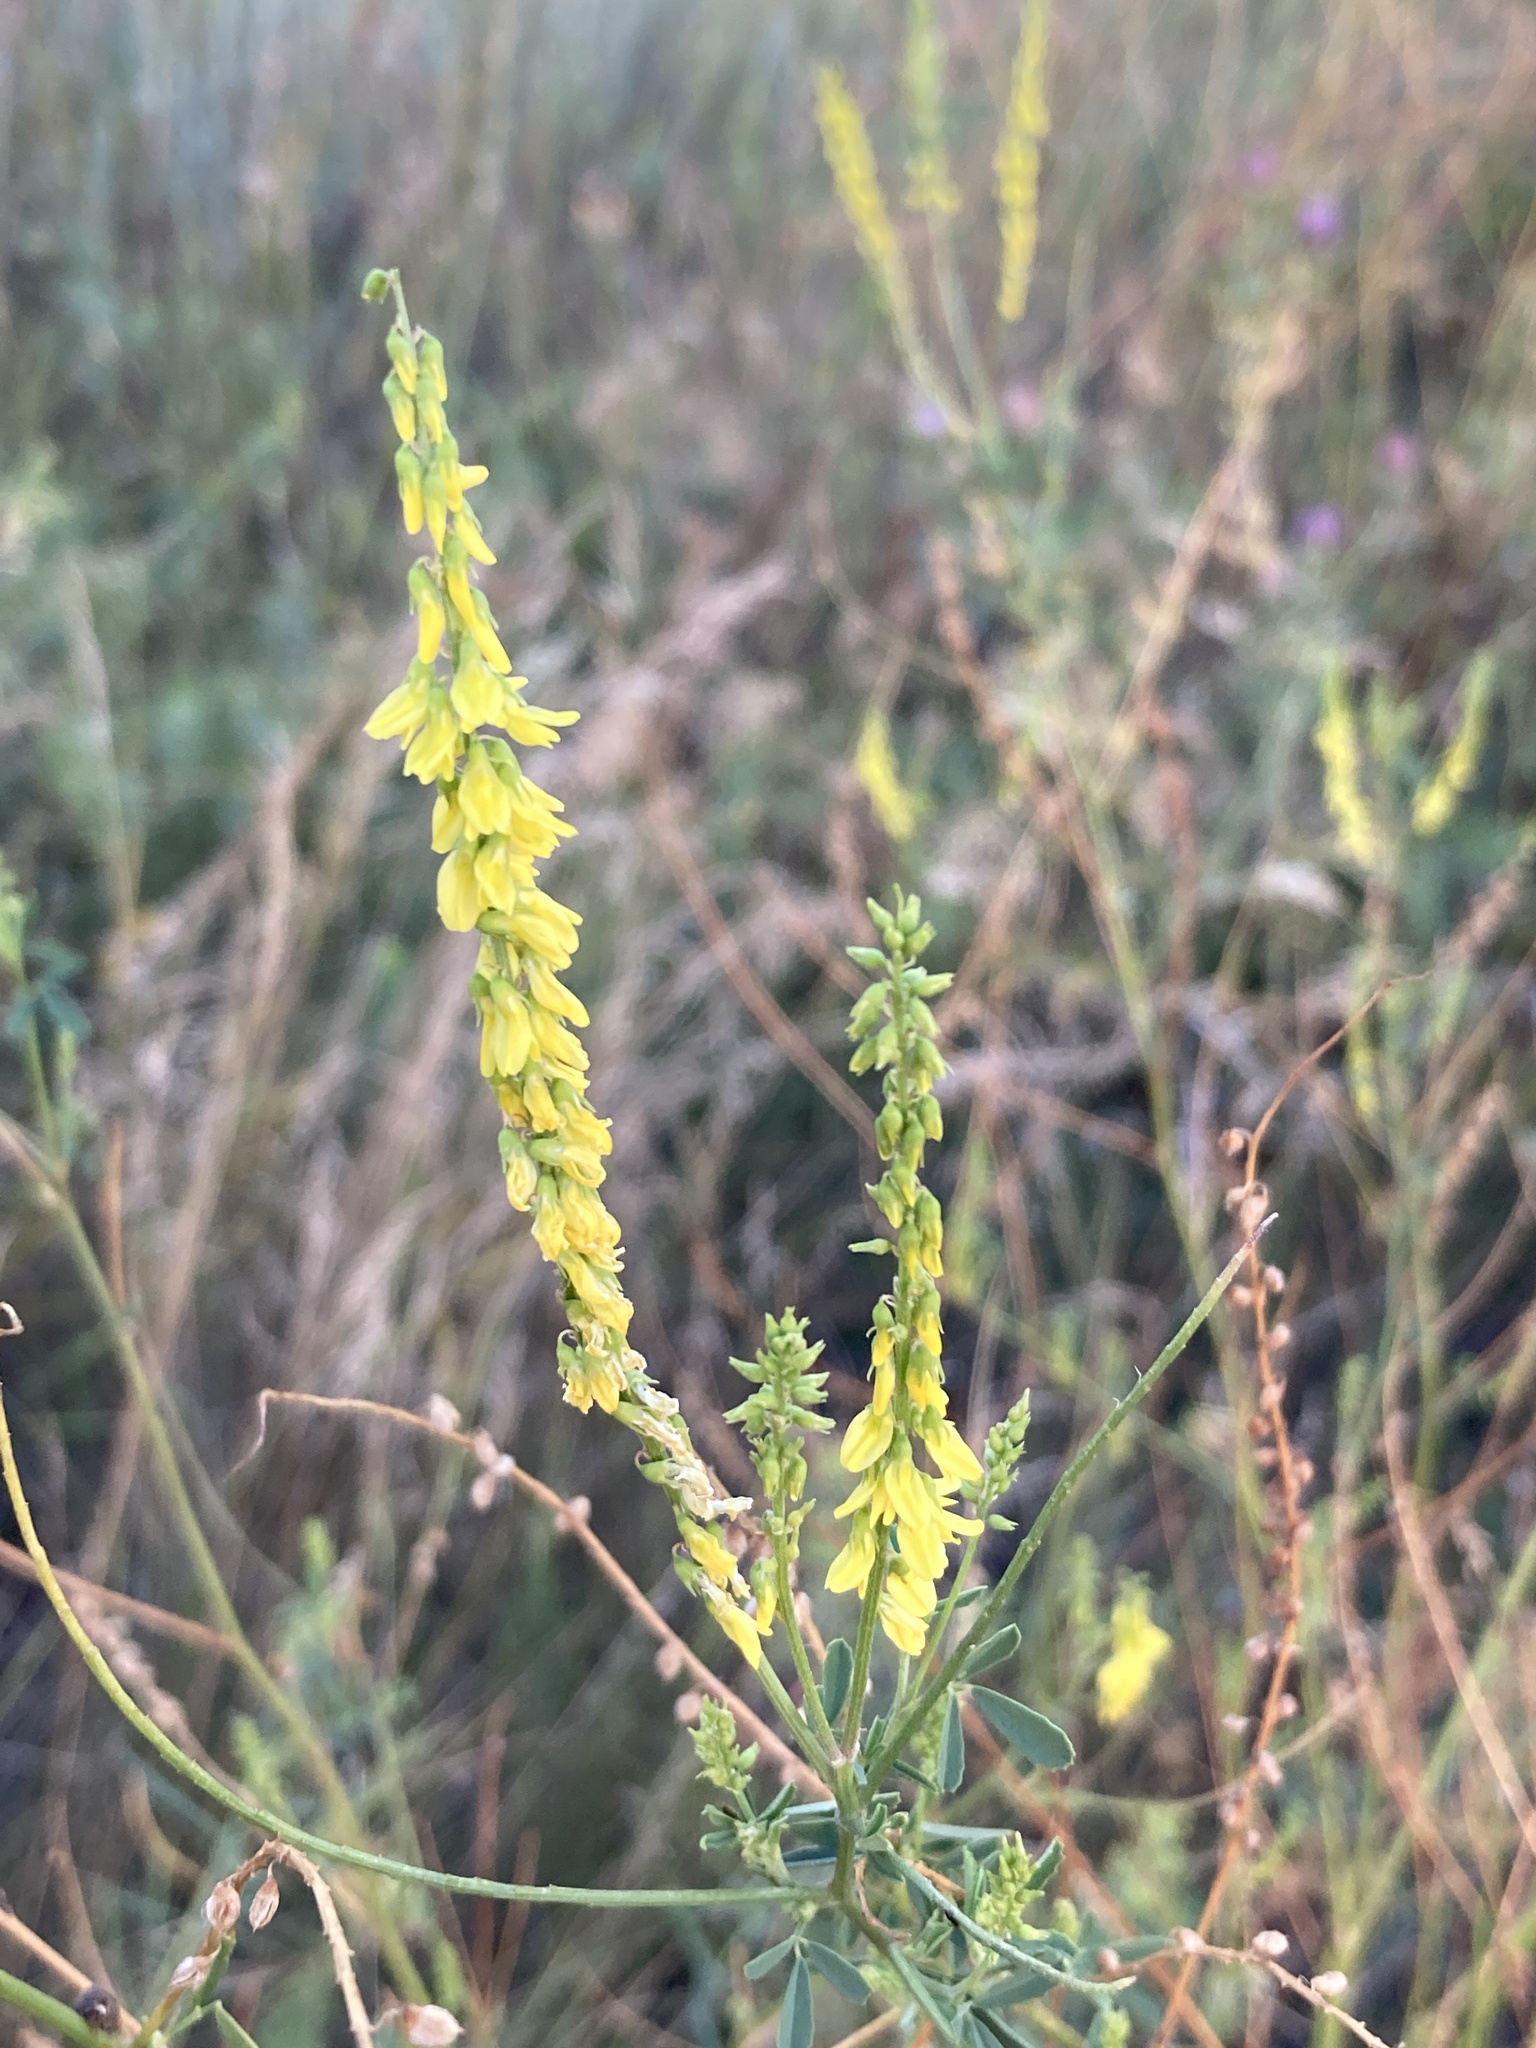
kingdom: Plantae
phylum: Tracheophyta
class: Magnoliopsida
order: Fabales
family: Fabaceae
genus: Melilotus
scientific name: Melilotus officinalis
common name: Sweetclover
